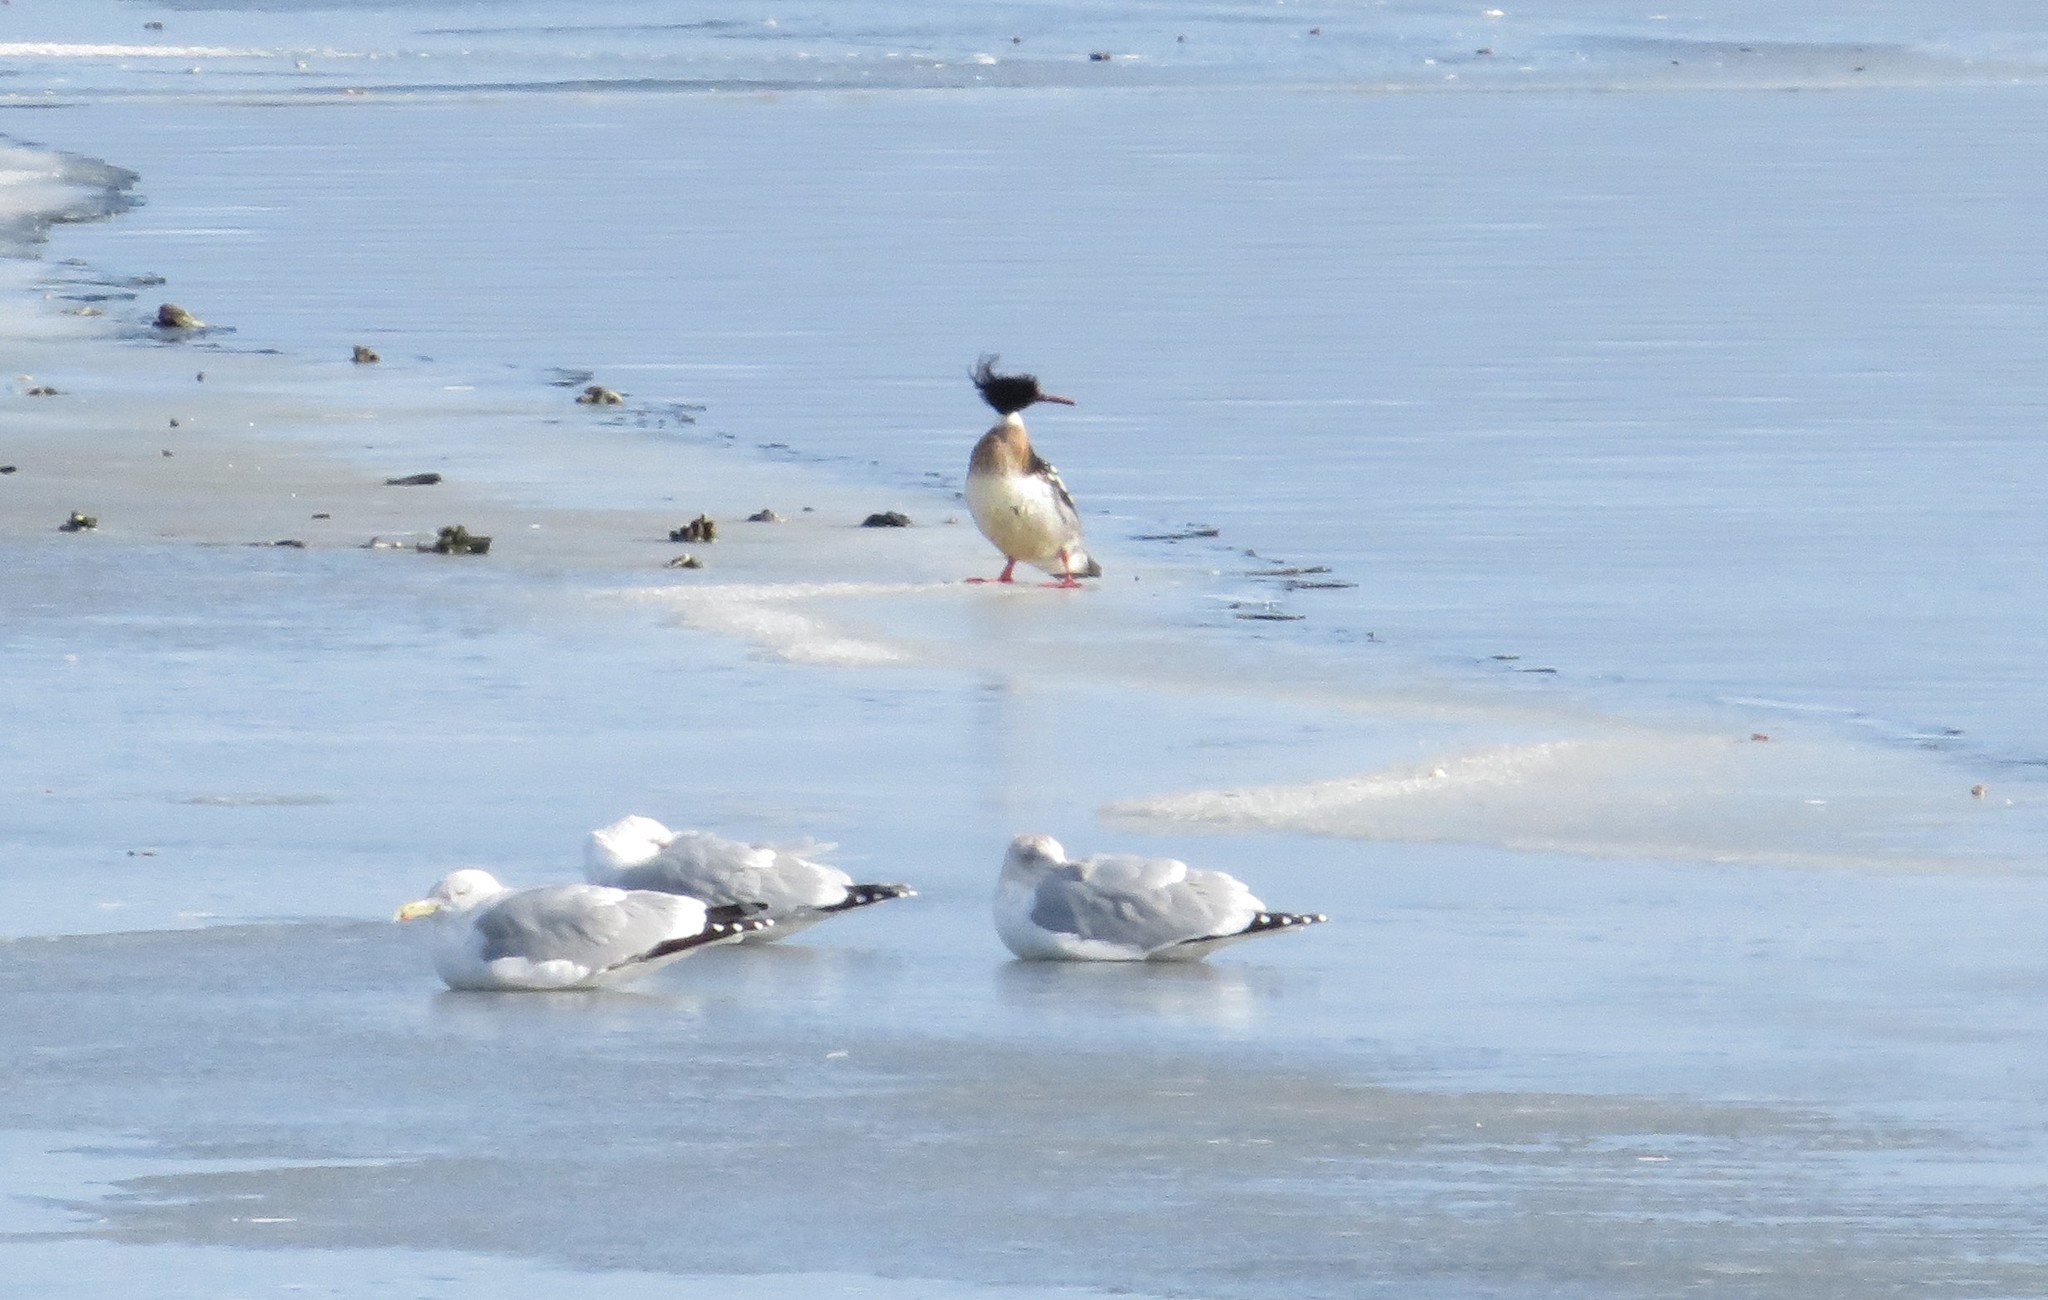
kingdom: Animalia
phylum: Chordata
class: Aves
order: Anseriformes
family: Anatidae
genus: Mergus
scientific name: Mergus serrator
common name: Red-breasted merganser
